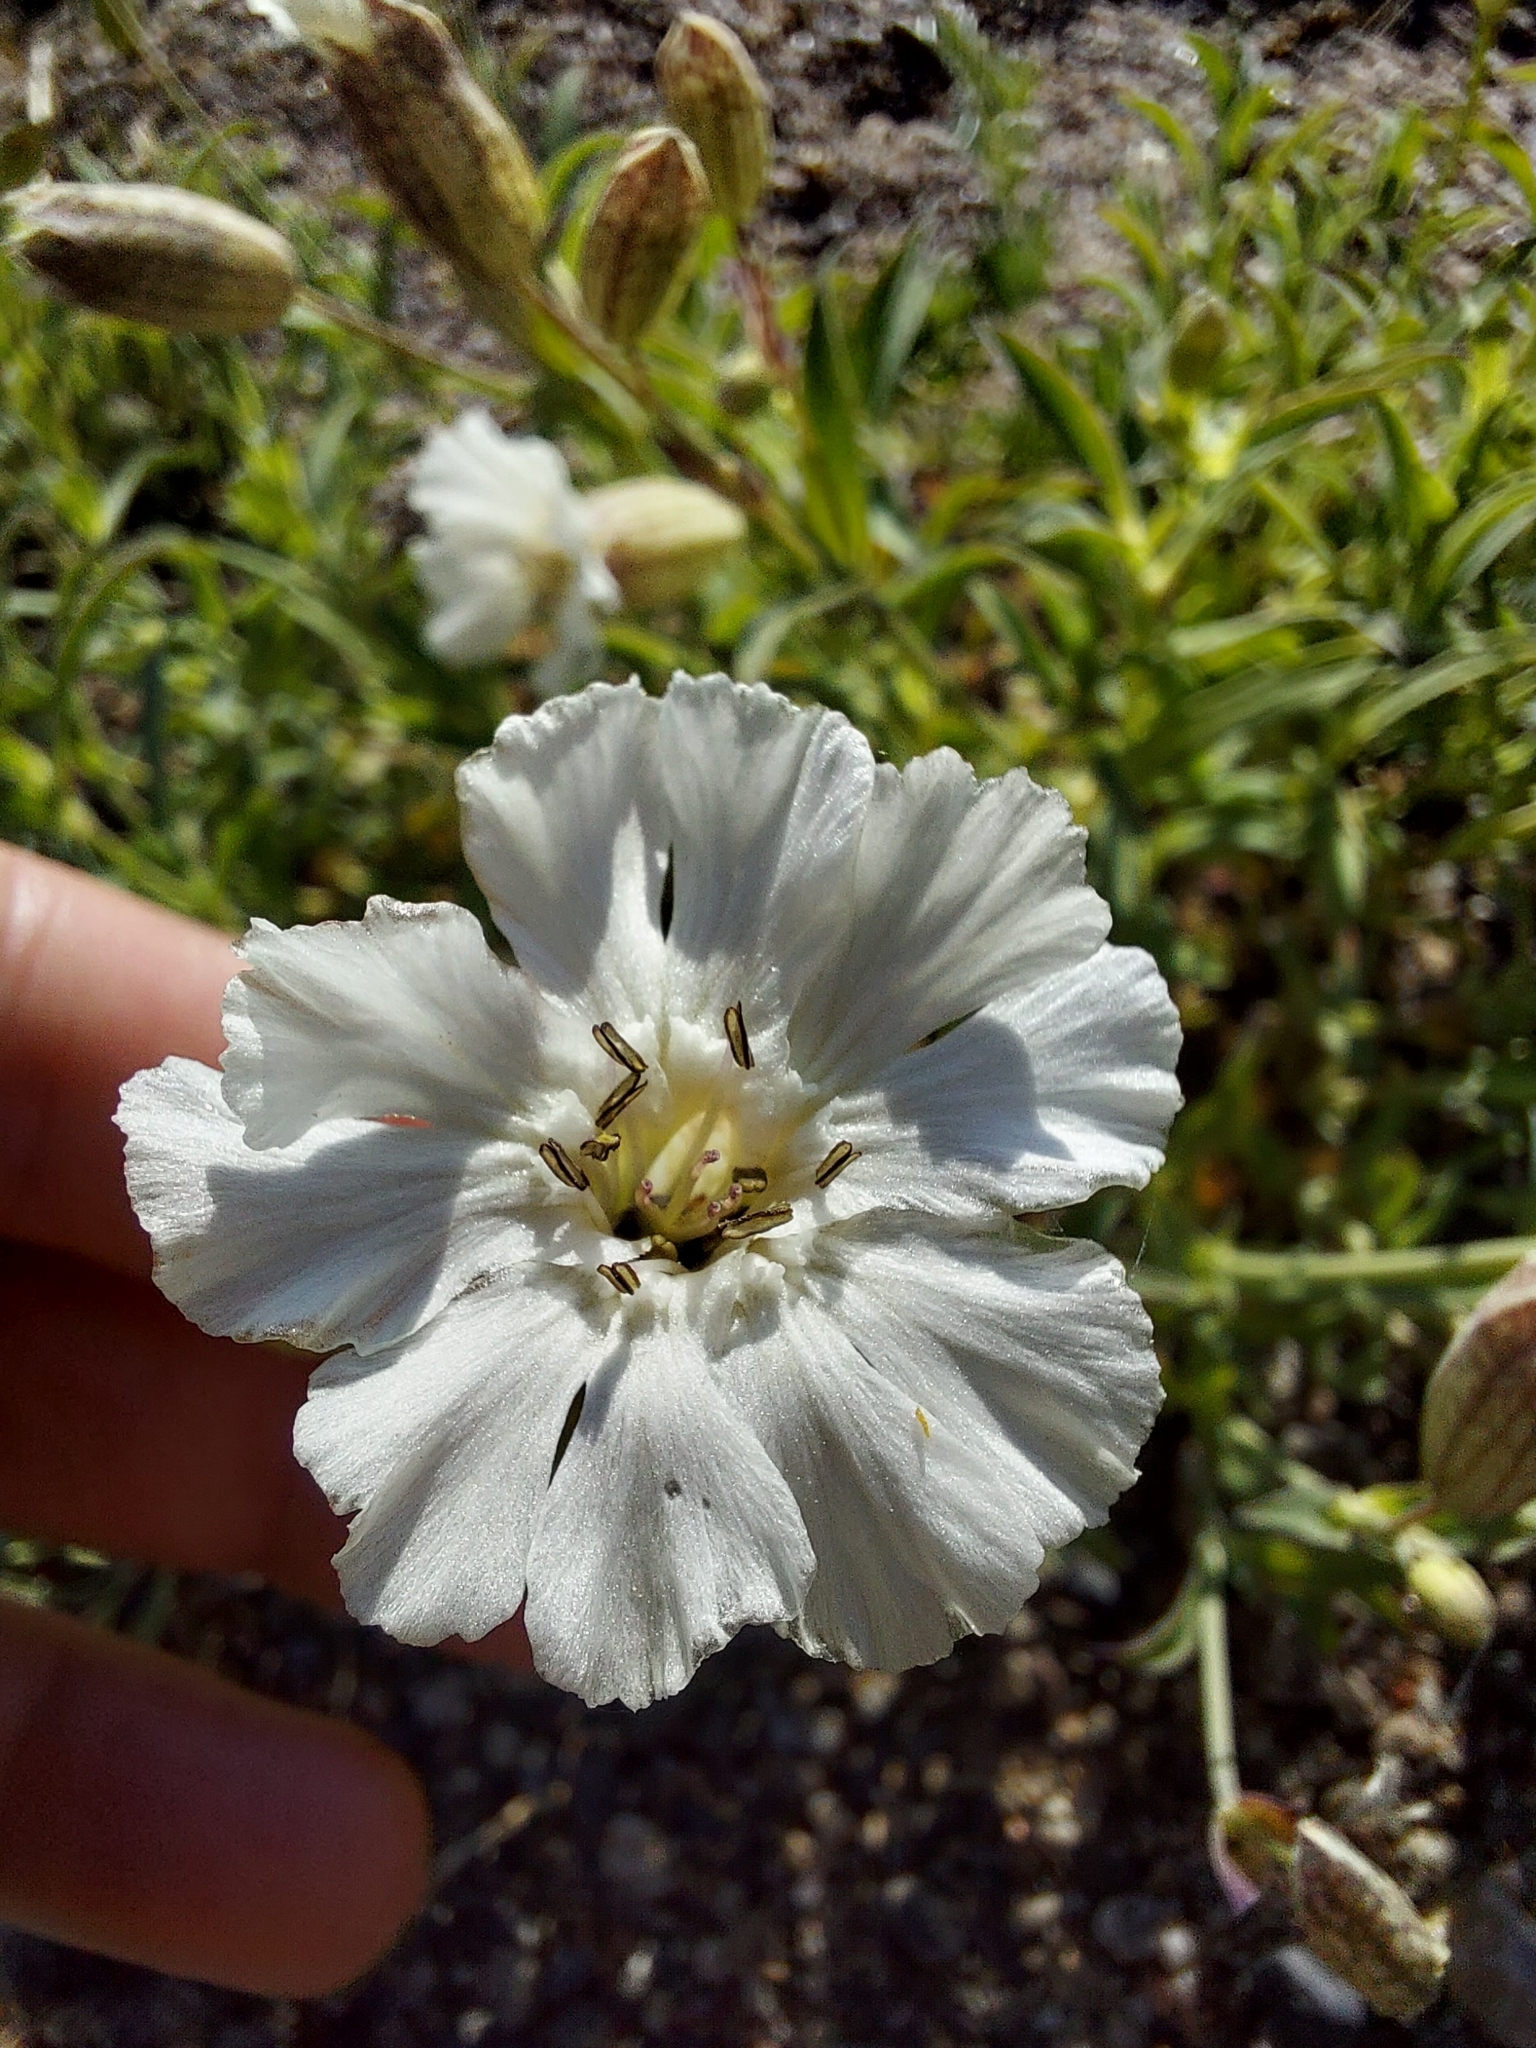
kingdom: Plantae
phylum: Tracheophyta
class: Magnoliopsida
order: Caryophyllales
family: Caryophyllaceae
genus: Silene
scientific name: Silene uniflora
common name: Sea campion
